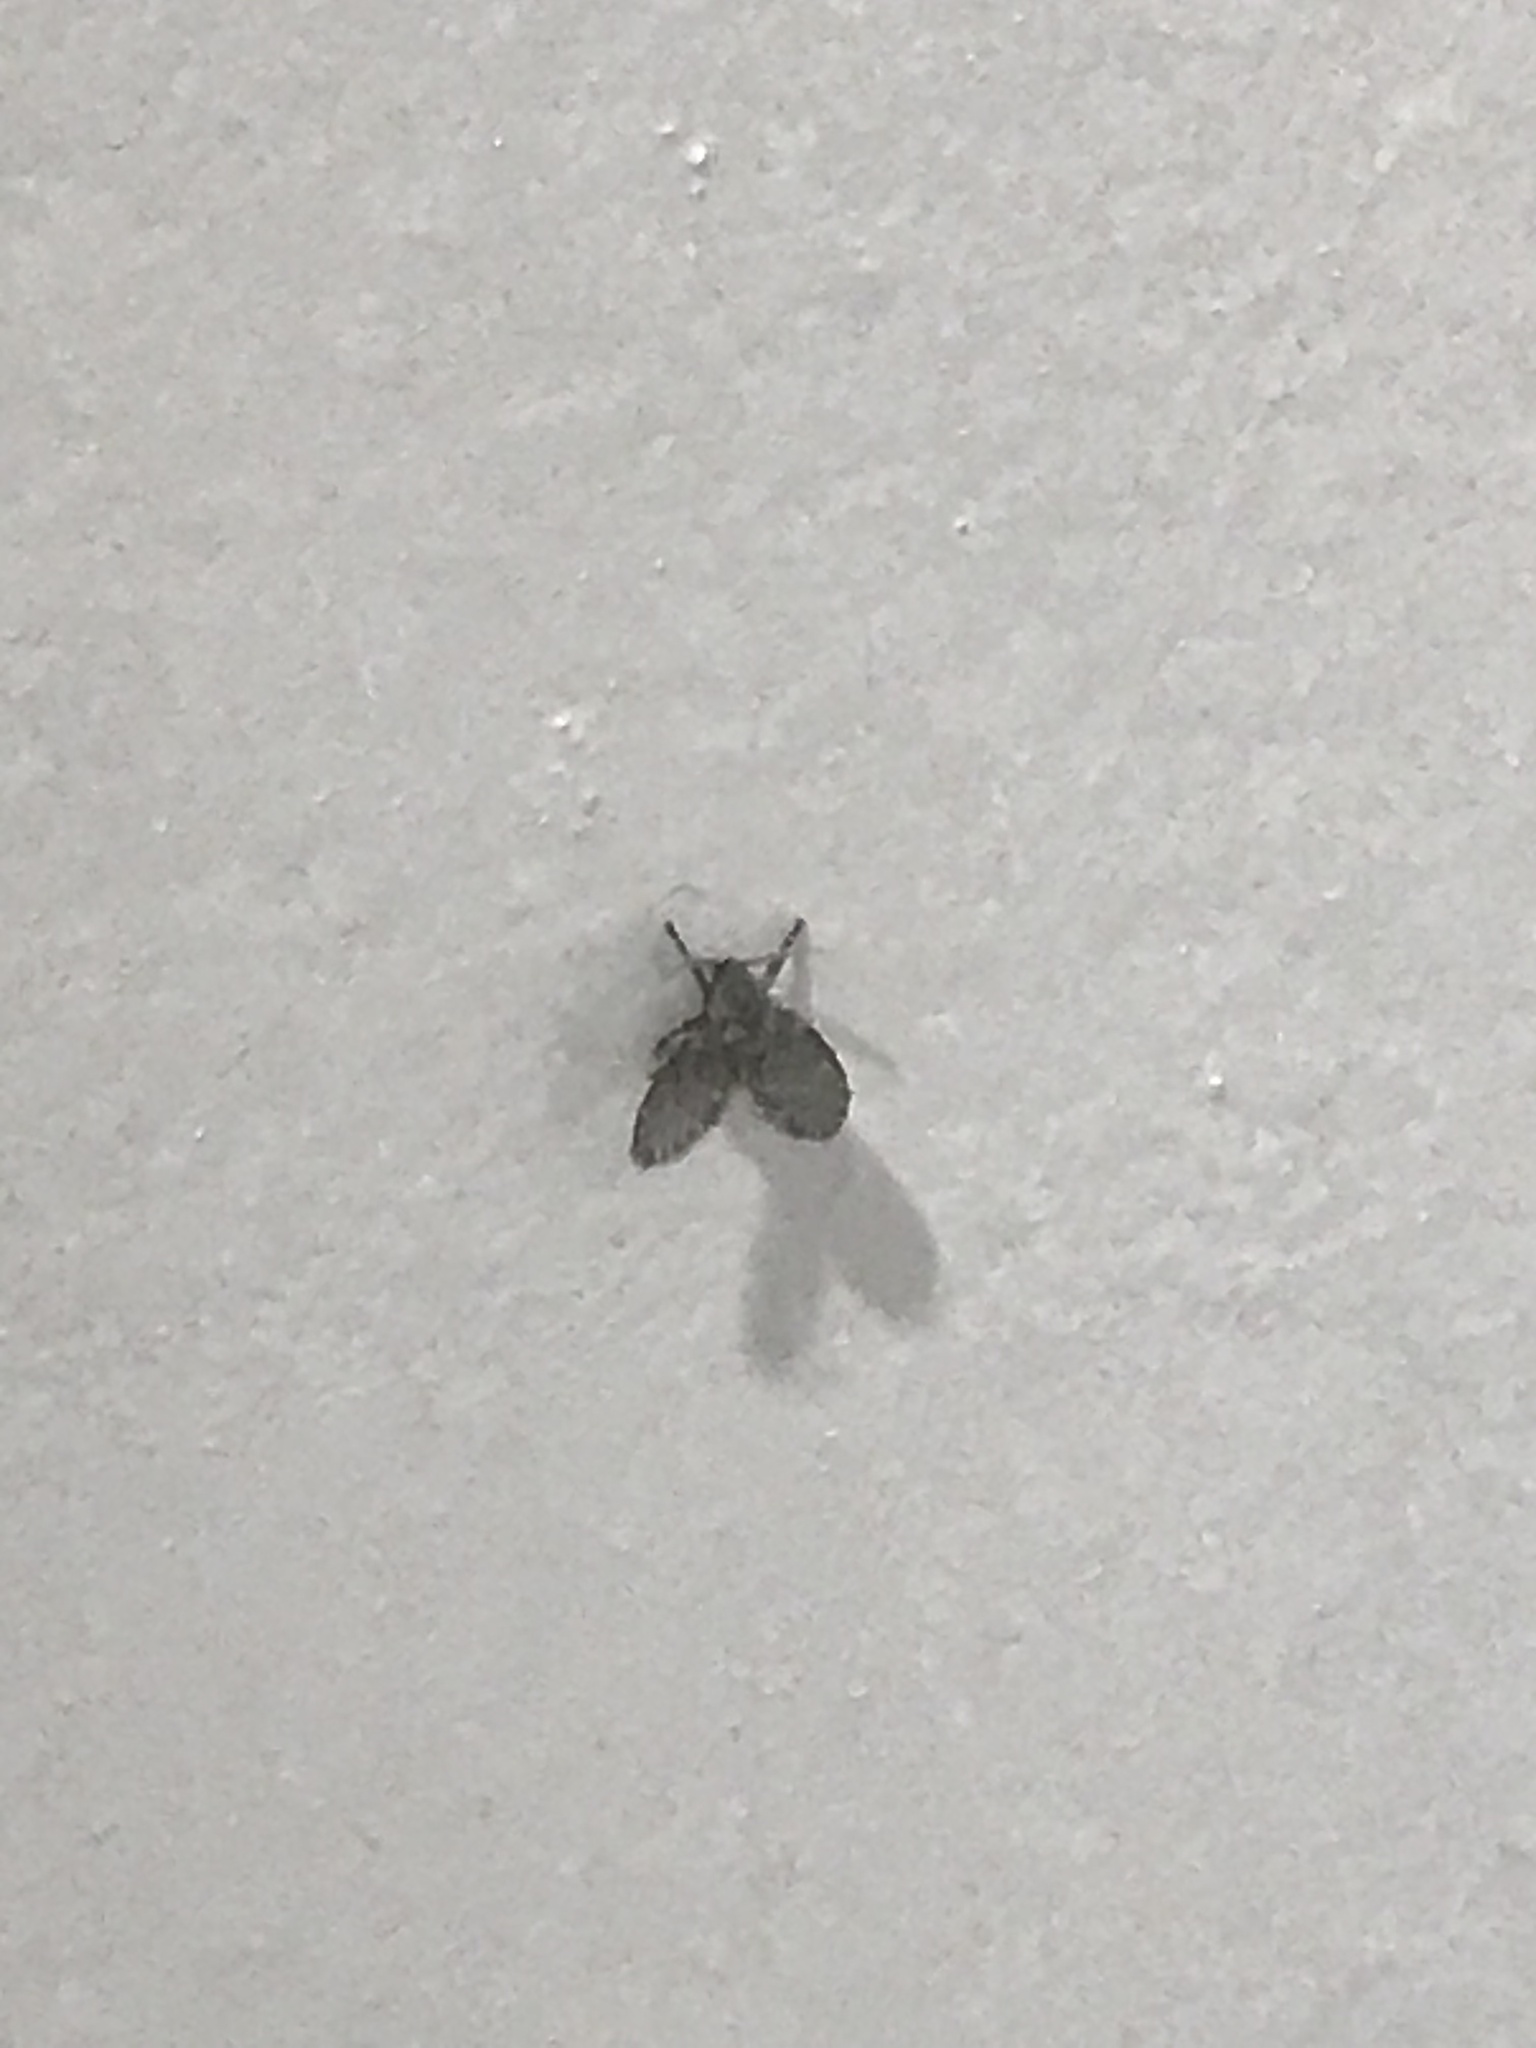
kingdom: Animalia
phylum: Arthropoda
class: Insecta
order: Diptera
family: Psychodidae
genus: Clogmia
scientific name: Clogmia albipunctatus
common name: White-spotted moth fly
